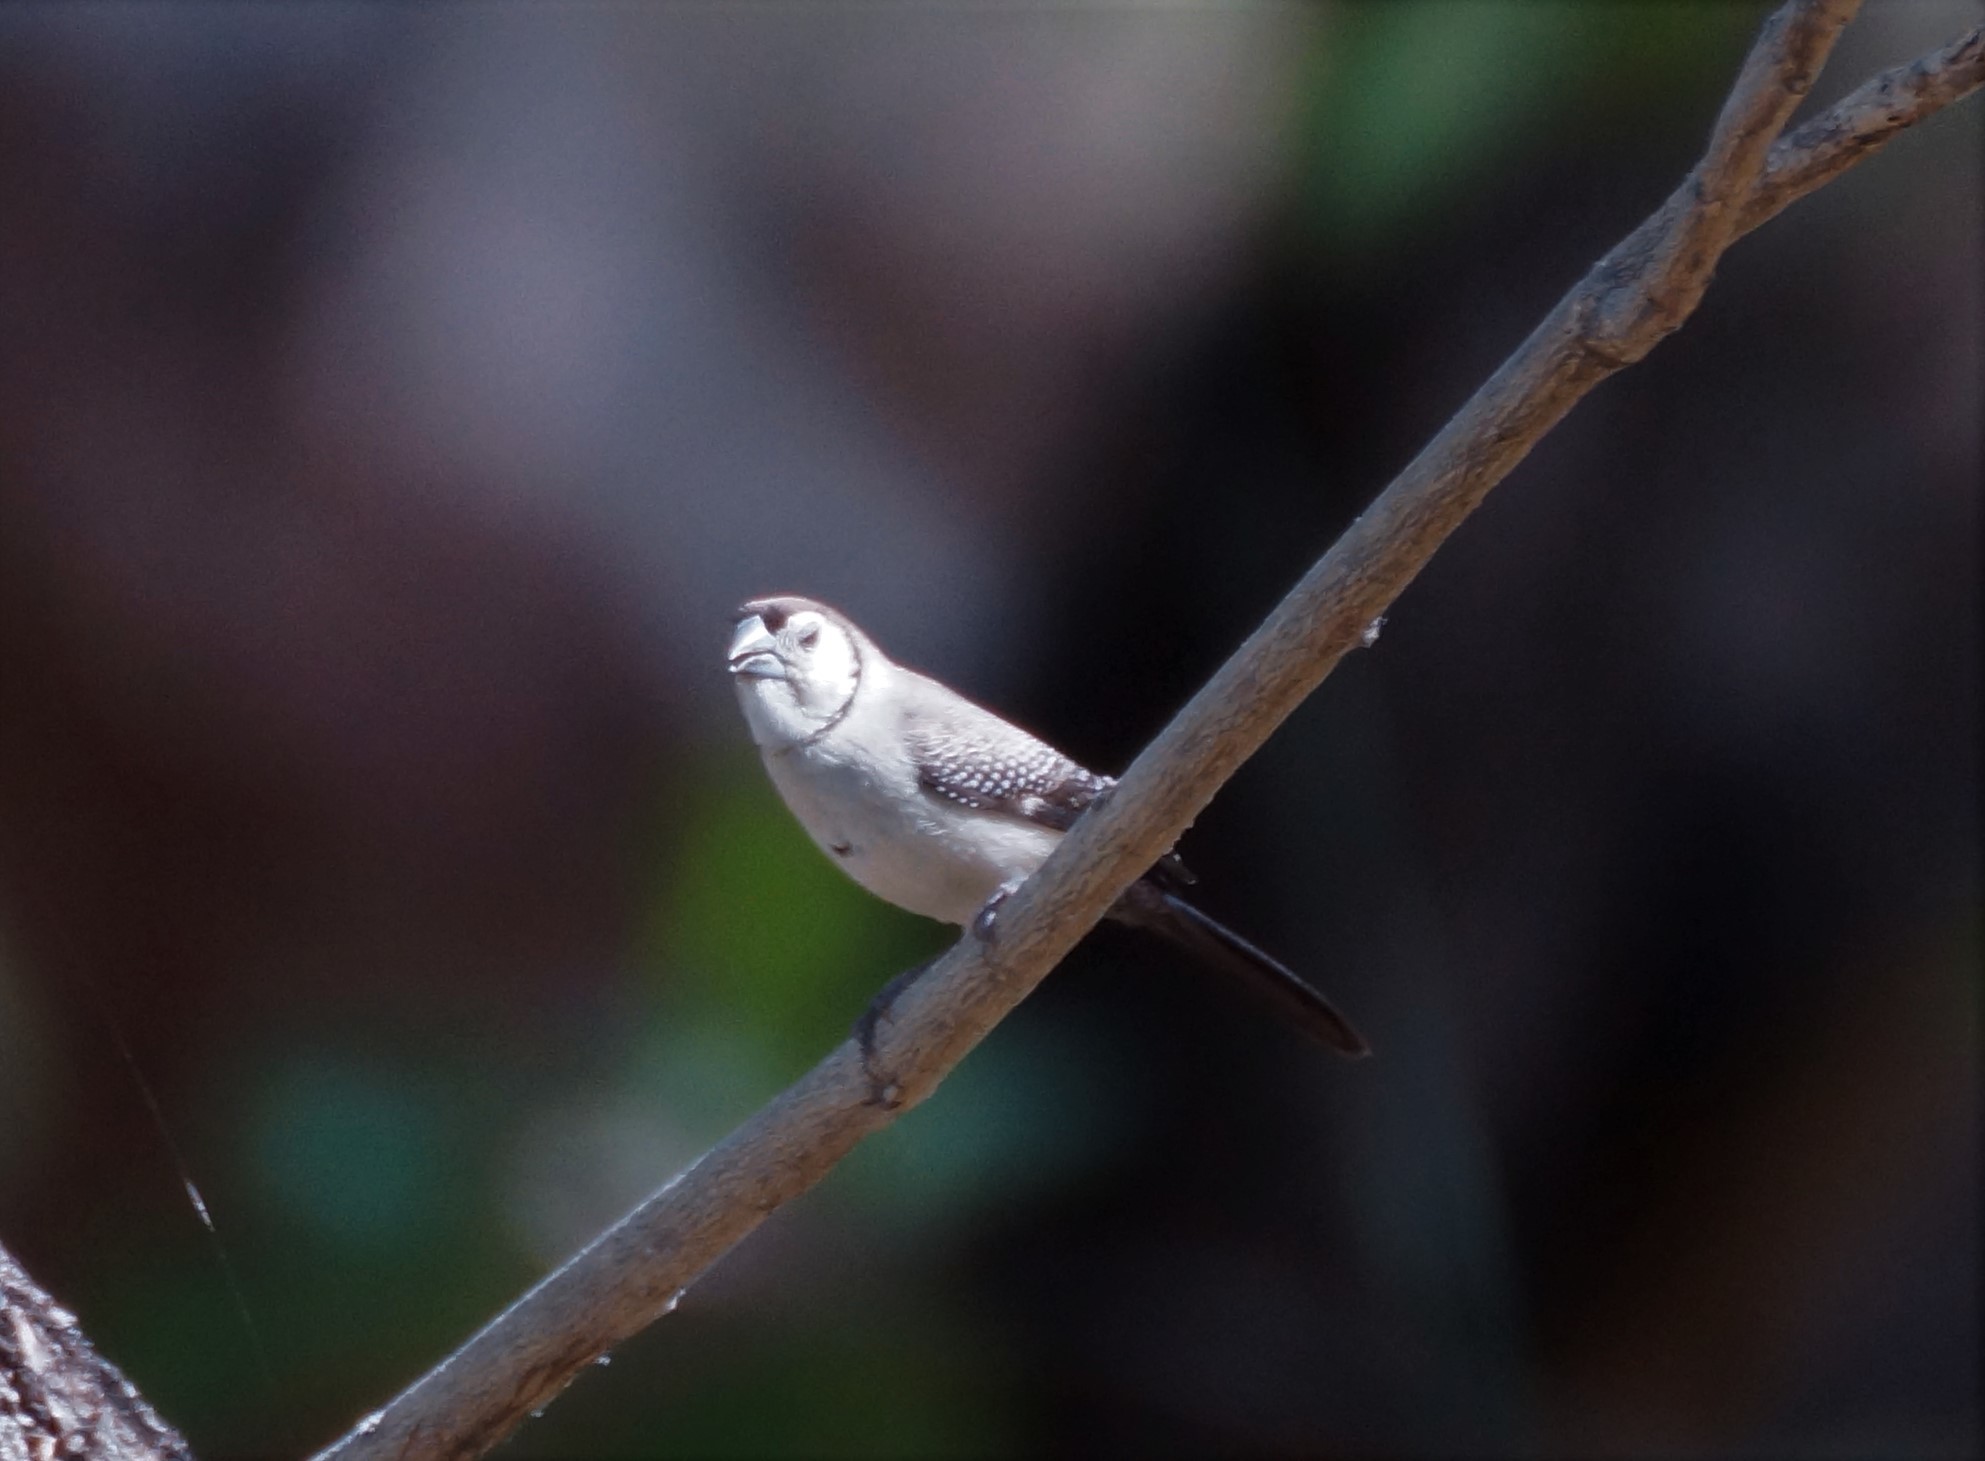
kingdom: Animalia
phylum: Chordata
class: Aves
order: Passeriformes
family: Estrildidae
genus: Taeniopygia
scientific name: Taeniopygia bichenovii
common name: Double-barred finch
